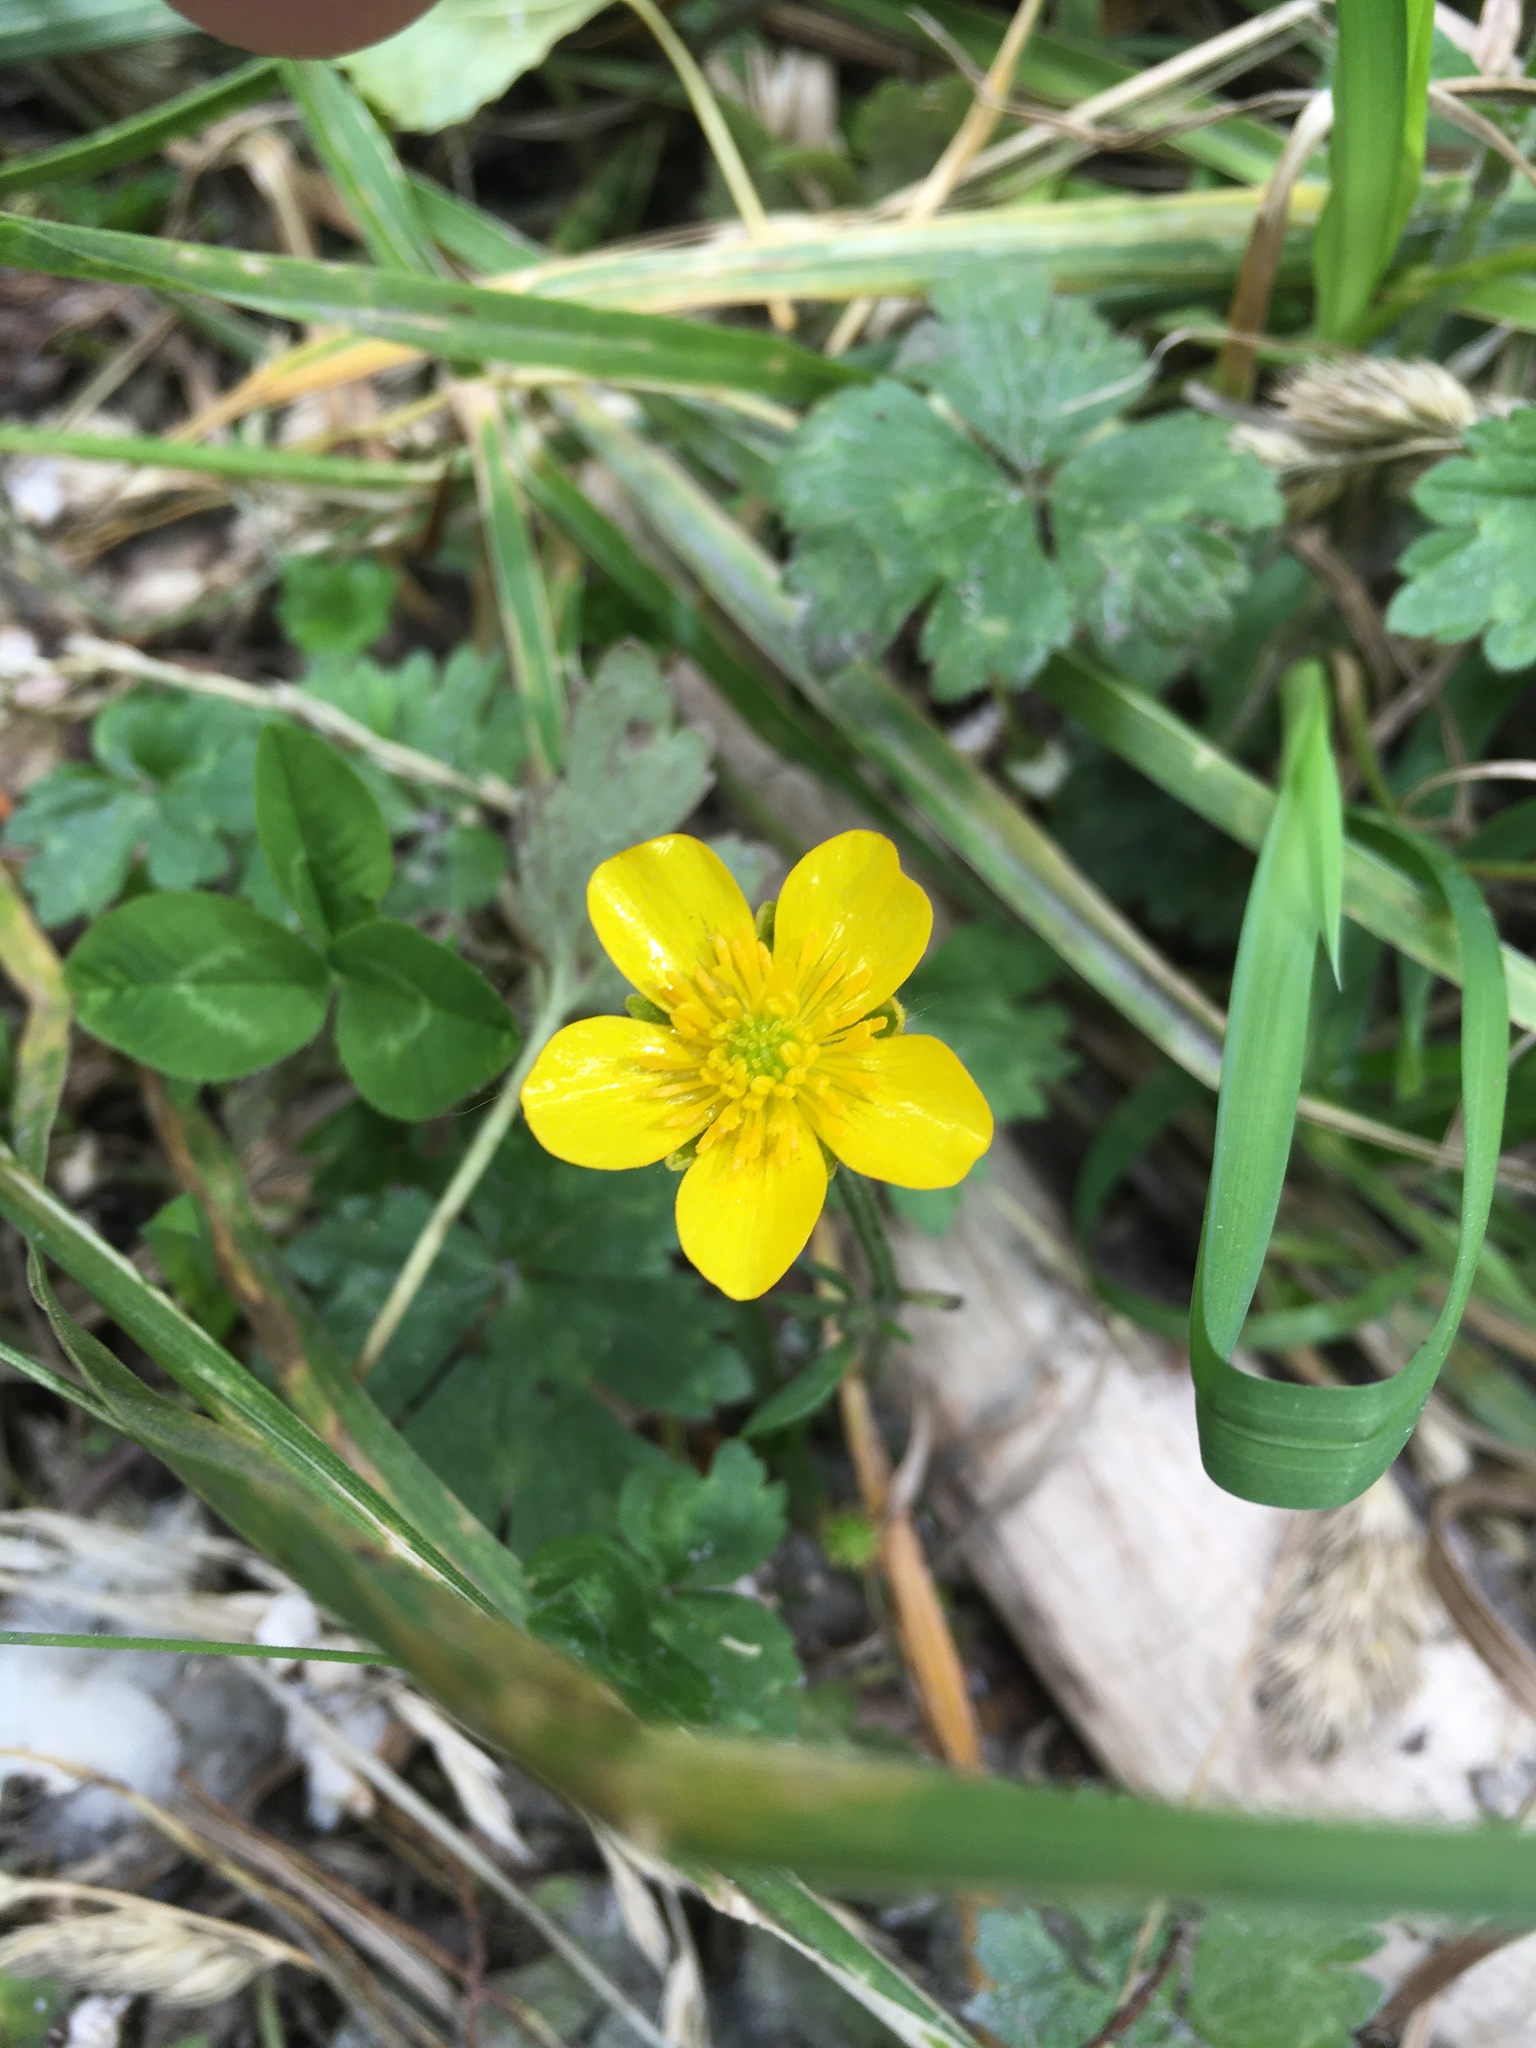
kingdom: Plantae
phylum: Tracheophyta
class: Magnoliopsida
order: Ranunculales
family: Ranunculaceae
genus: Ranunculus
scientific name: Ranunculus repens
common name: Creeping buttercup
